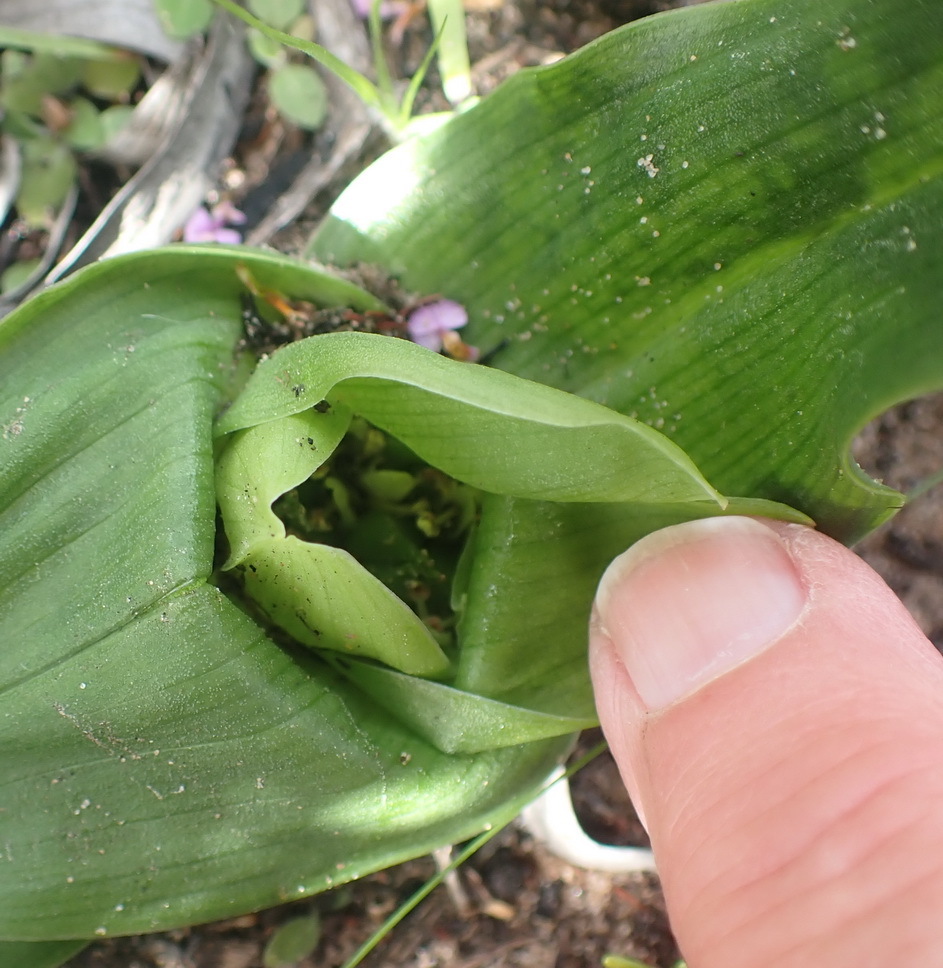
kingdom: Plantae
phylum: Tracheophyta
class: Liliopsida
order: Liliales
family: Colchicaceae
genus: Colchicum
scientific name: Colchicum eucomoides
